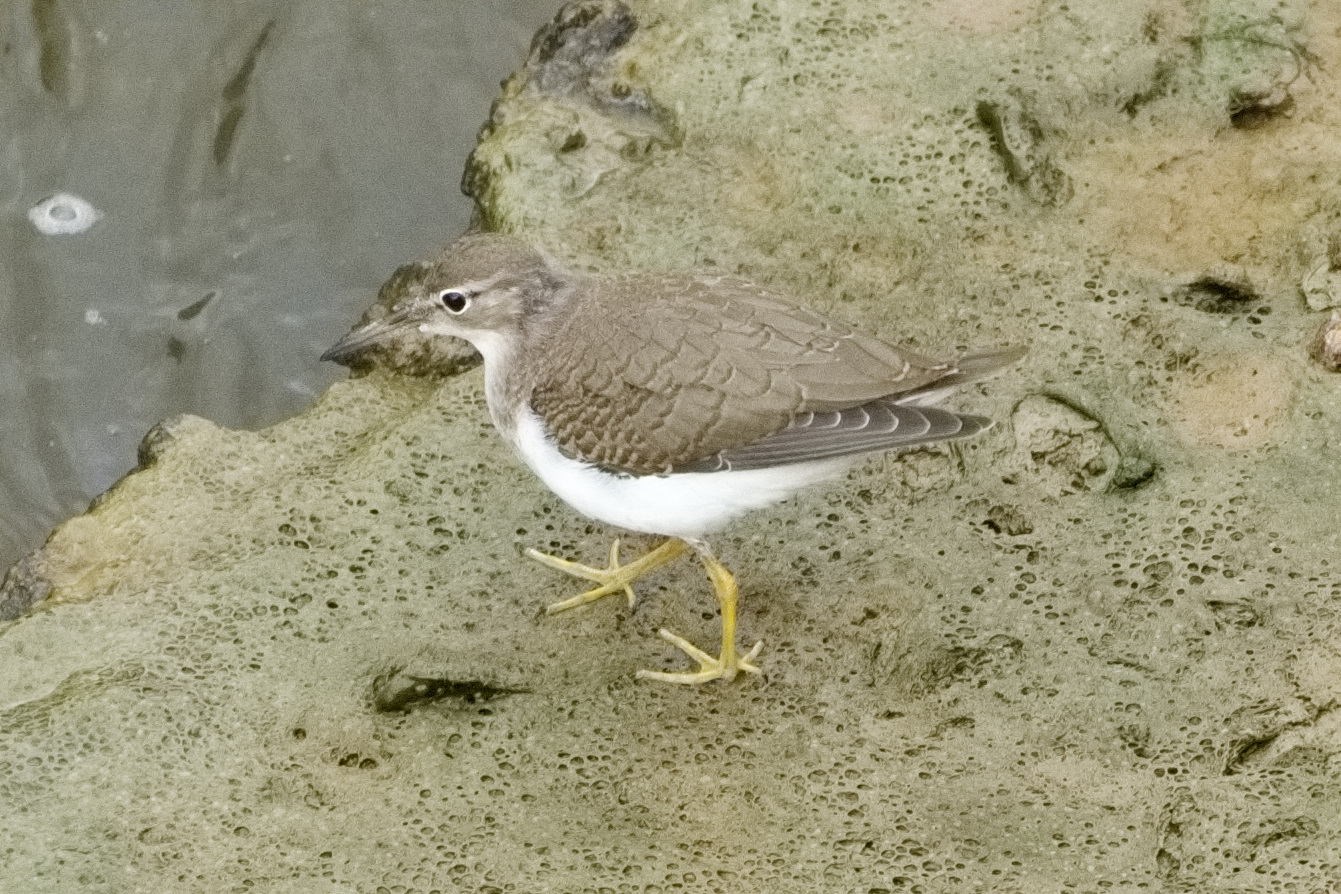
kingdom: Animalia
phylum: Chordata
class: Aves
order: Charadriiformes
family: Scolopacidae
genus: Actitis
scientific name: Actitis macularius
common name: Spotted sandpiper
